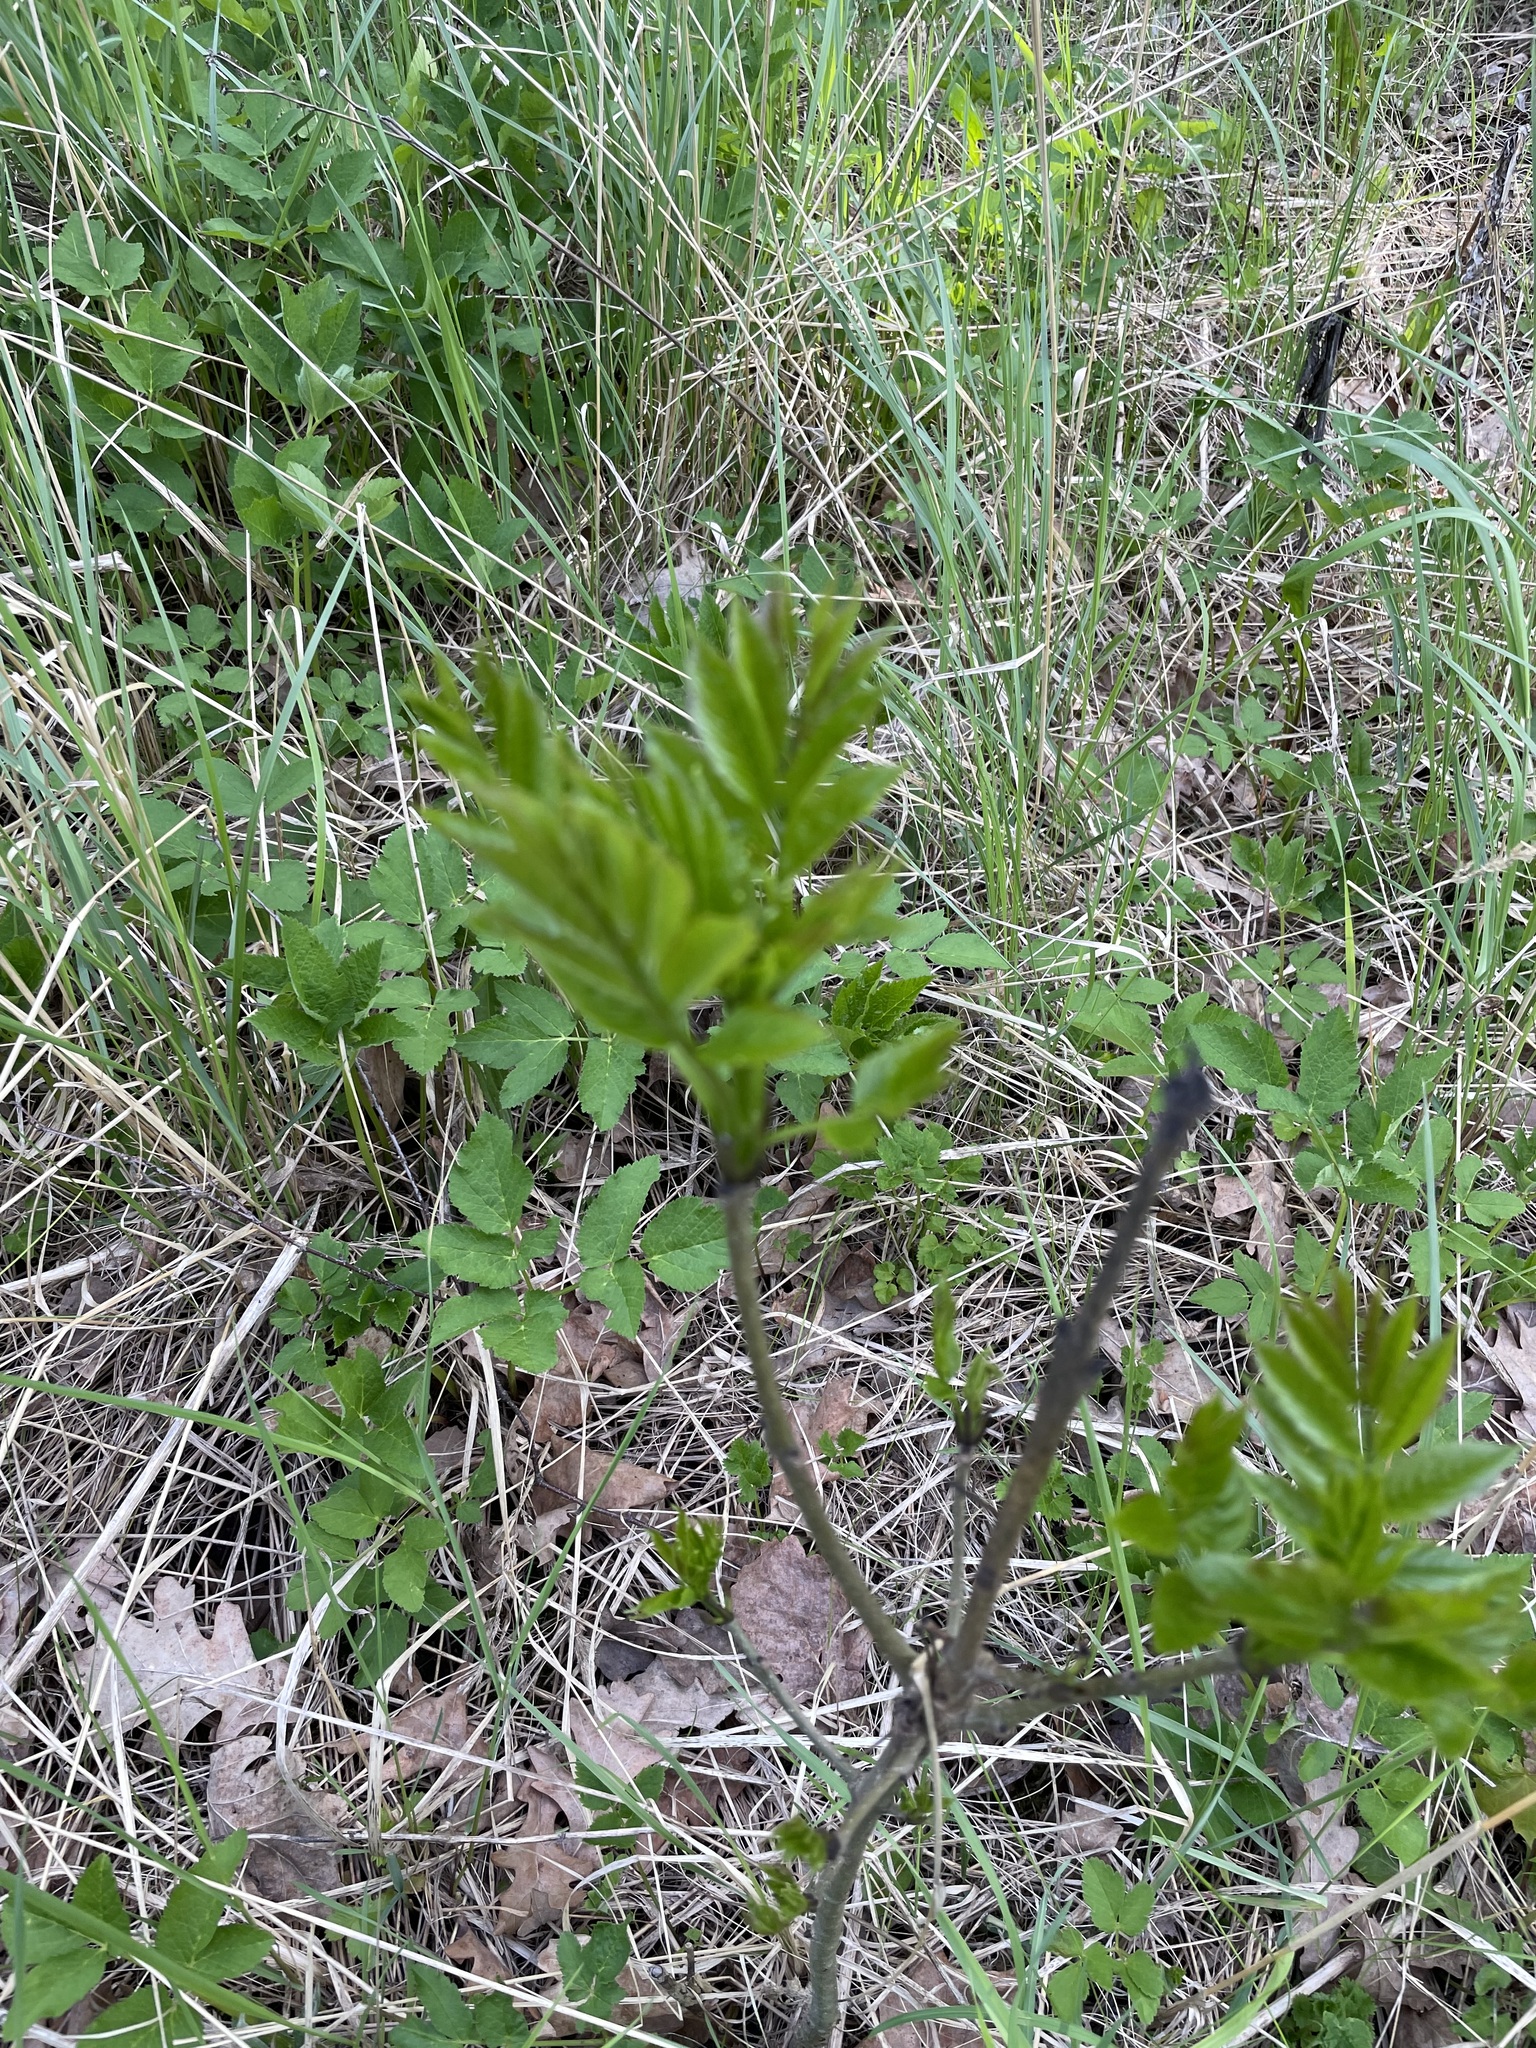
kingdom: Plantae
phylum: Tracheophyta
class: Magnoliopsida
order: Lamiales
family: Oleaceae
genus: Fraxinus
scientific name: Fraxinus excelsior
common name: European ash
